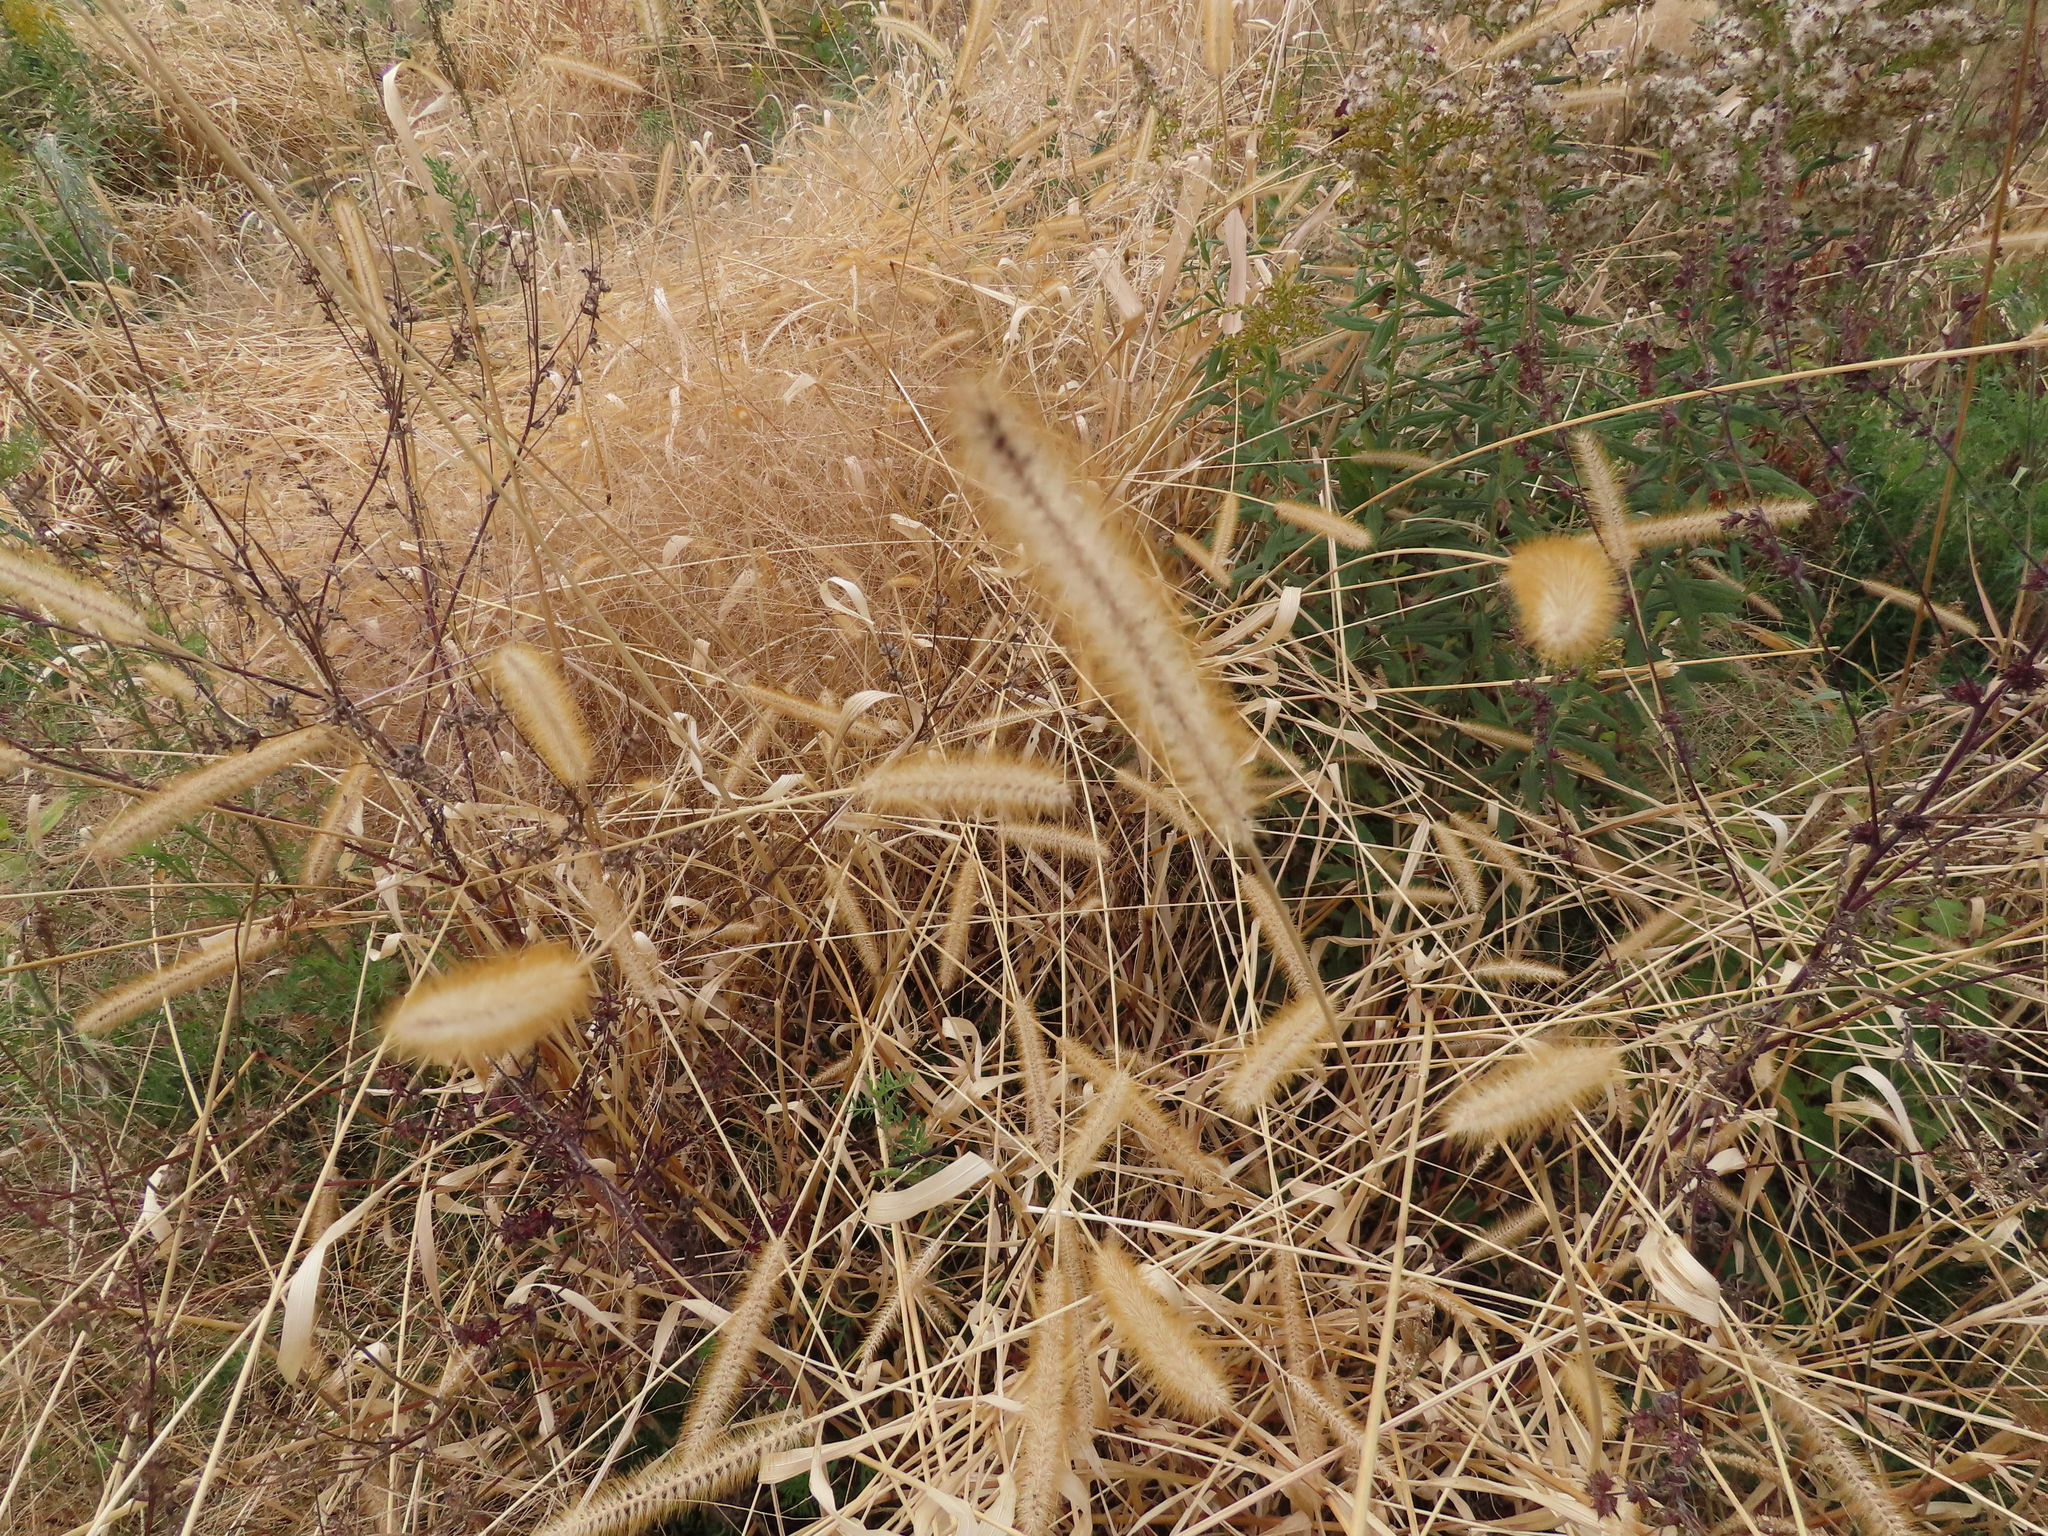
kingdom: Plantae
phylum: Tracheophyta
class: Liliopsida
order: Poales
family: Poaceae
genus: Setaria
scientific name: Setaria pumila
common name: Yellow bristle-grass
